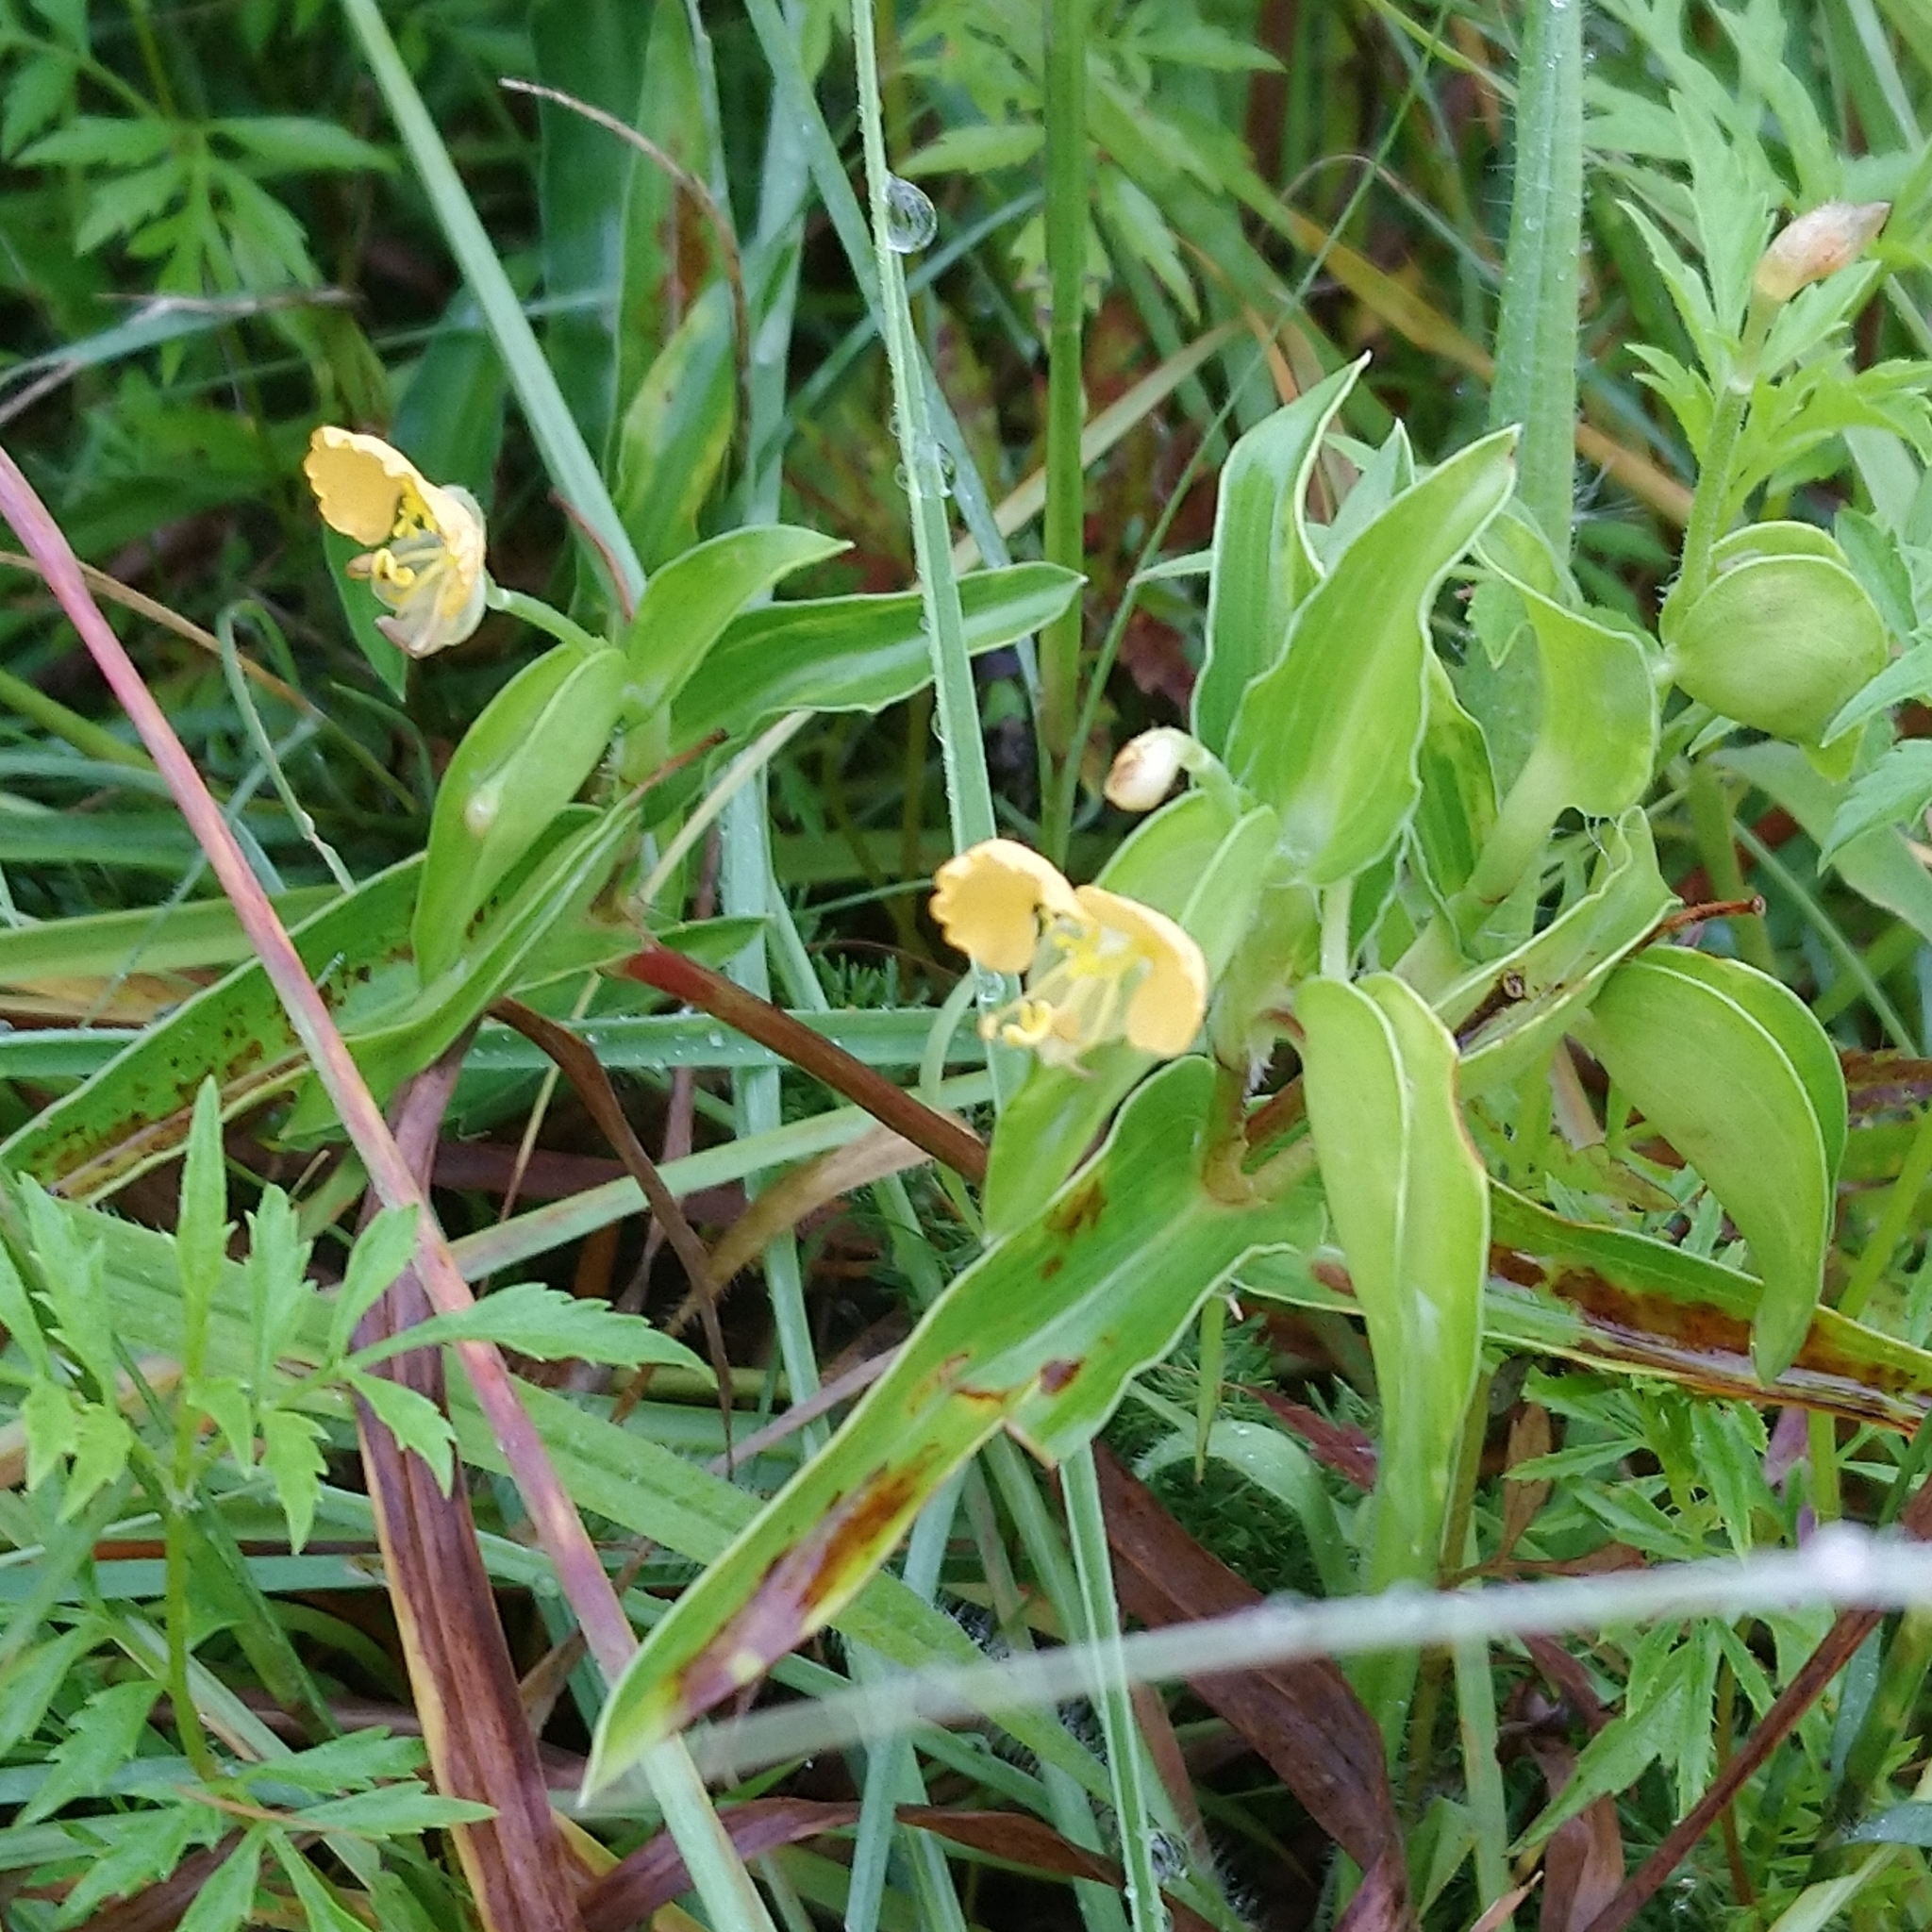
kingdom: Plantae
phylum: Tracheophyta
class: Liliopsida
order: Commelinales
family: Commelinaceae
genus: Commelina
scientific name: Commelina africana
